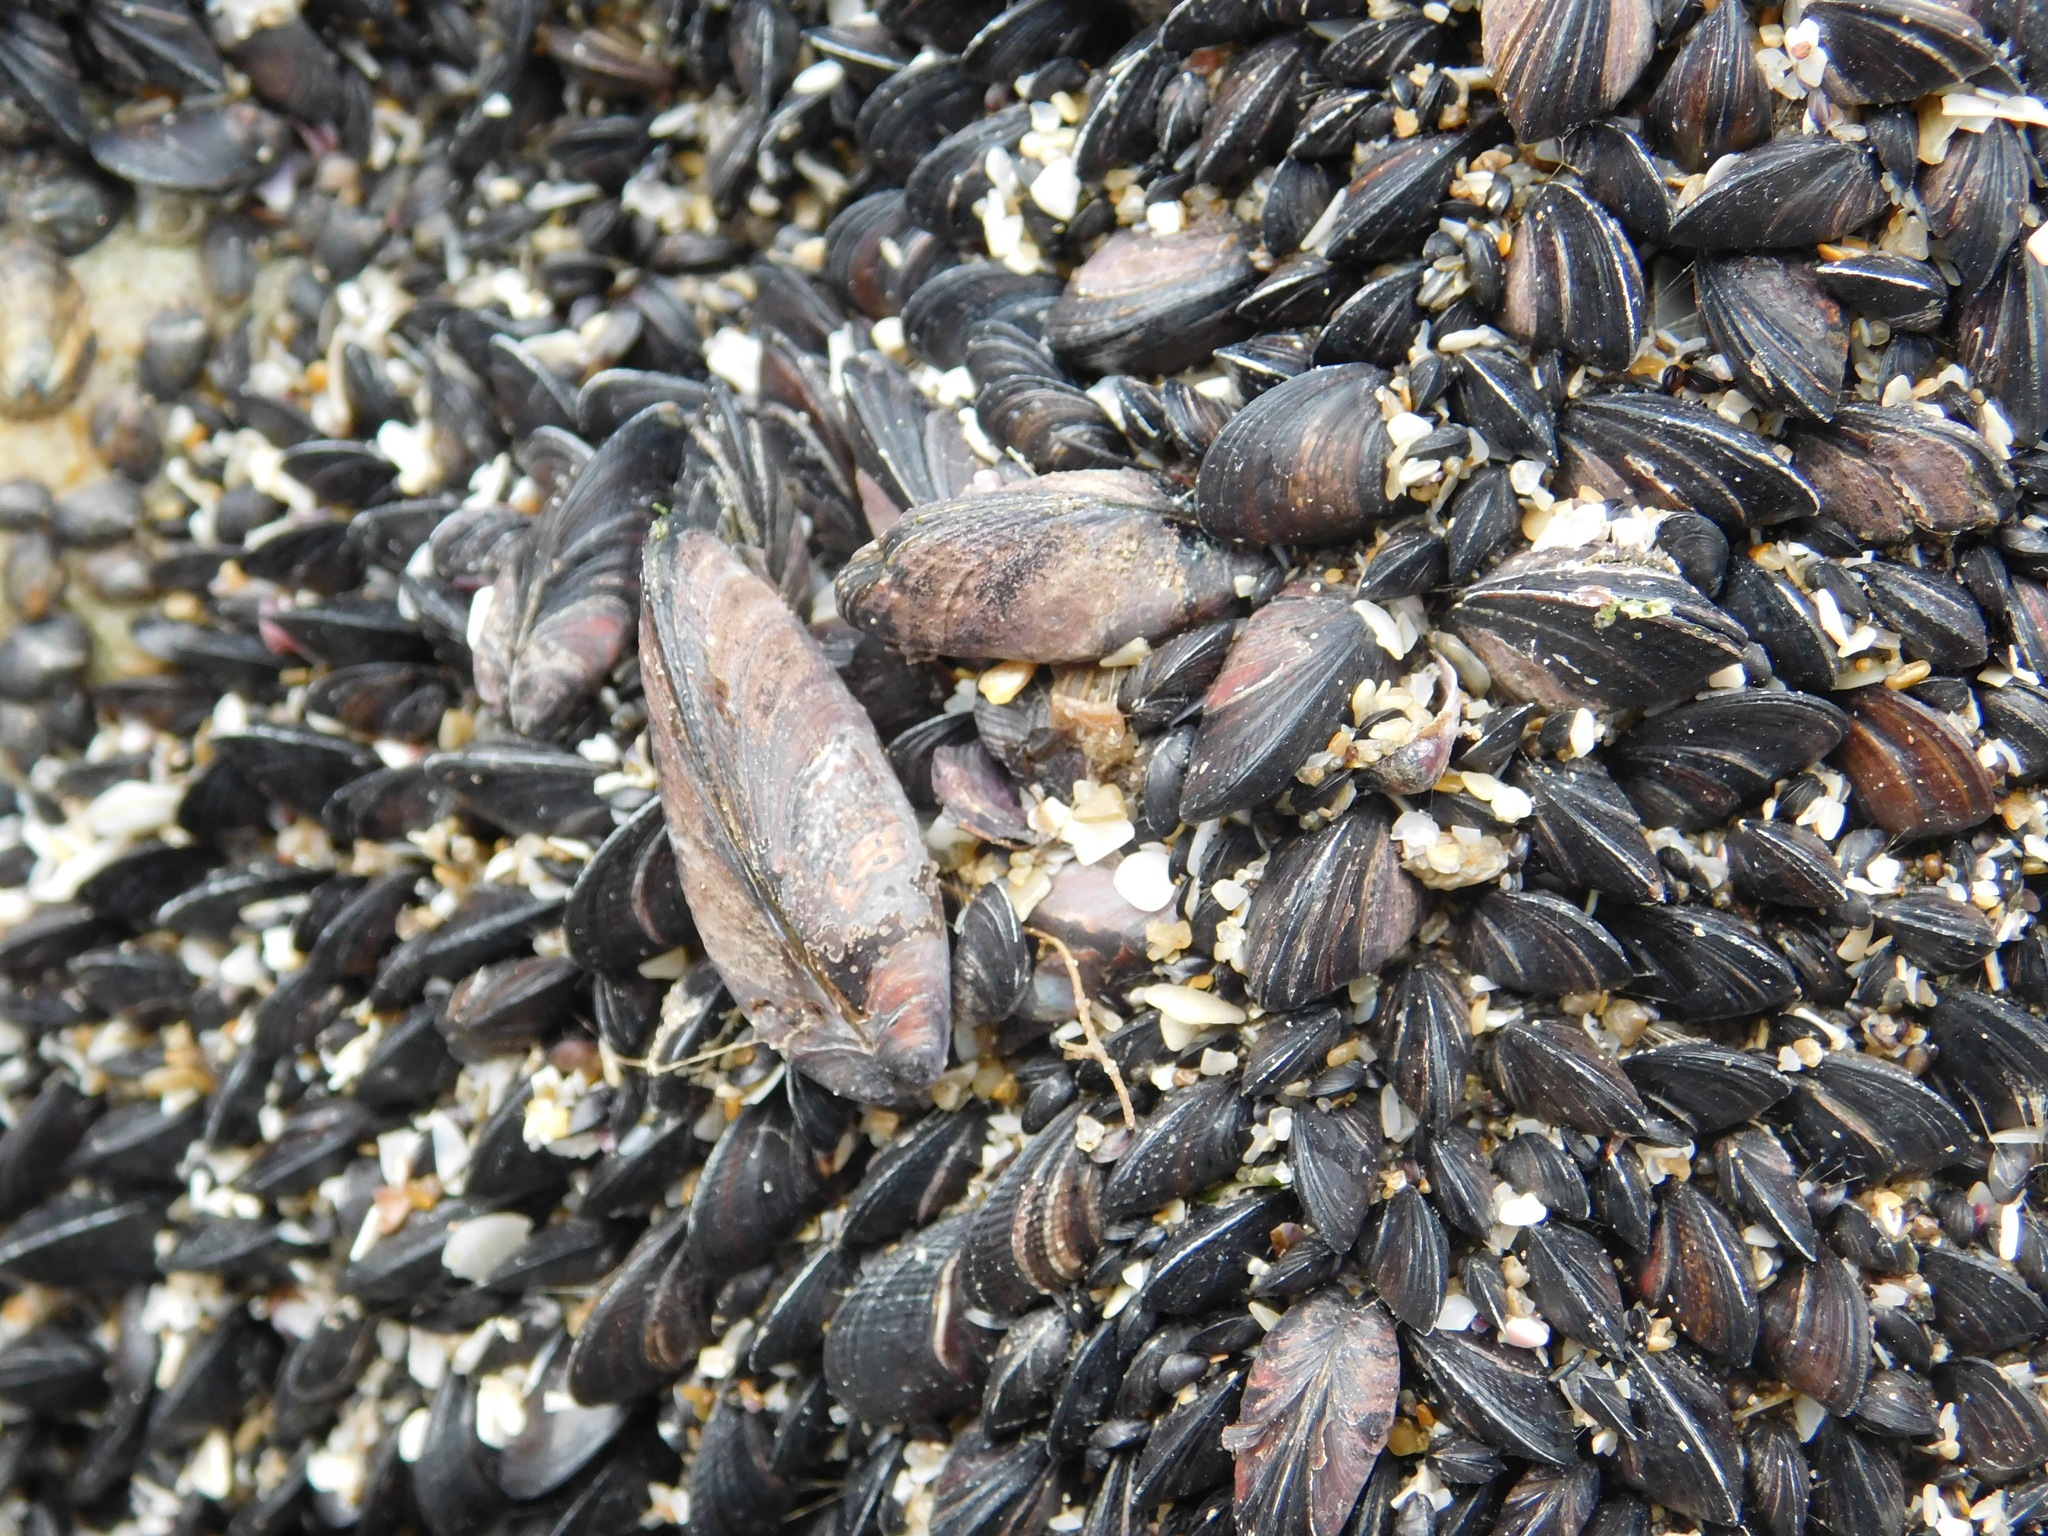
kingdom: Animalia
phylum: Mollusca
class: Bivalvia
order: Mytilida
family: Mytilidae
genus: Brachidontes
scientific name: Brachidontes rodriguezii
